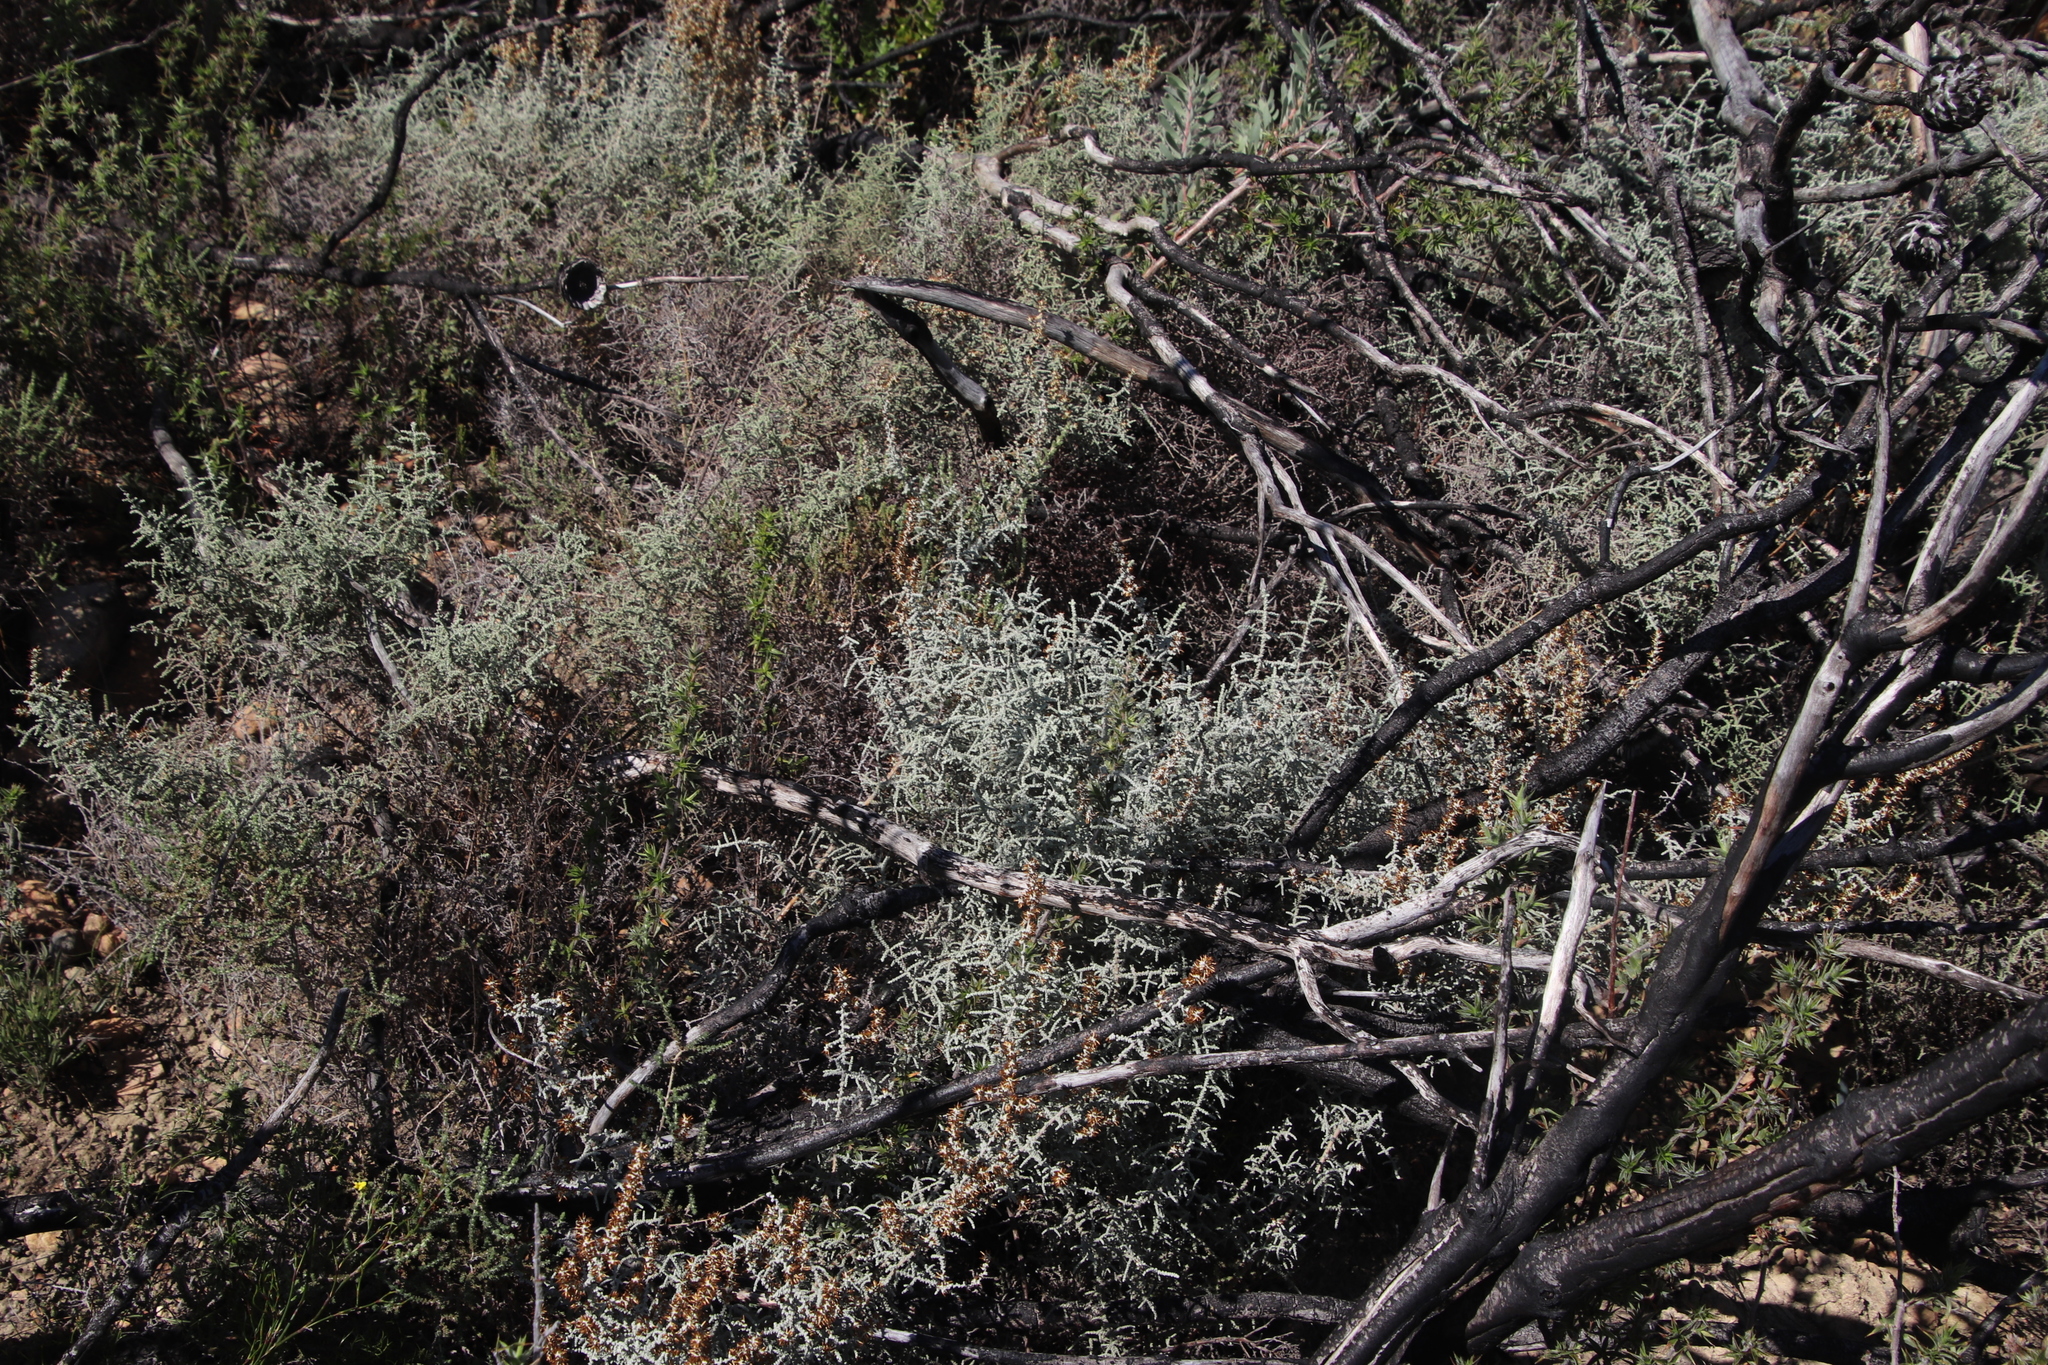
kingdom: Plantae
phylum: Tracheophyta
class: Magnoliopsida
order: Asterales
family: Asteraceae
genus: Seriphium
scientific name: Seriphium plumosum
